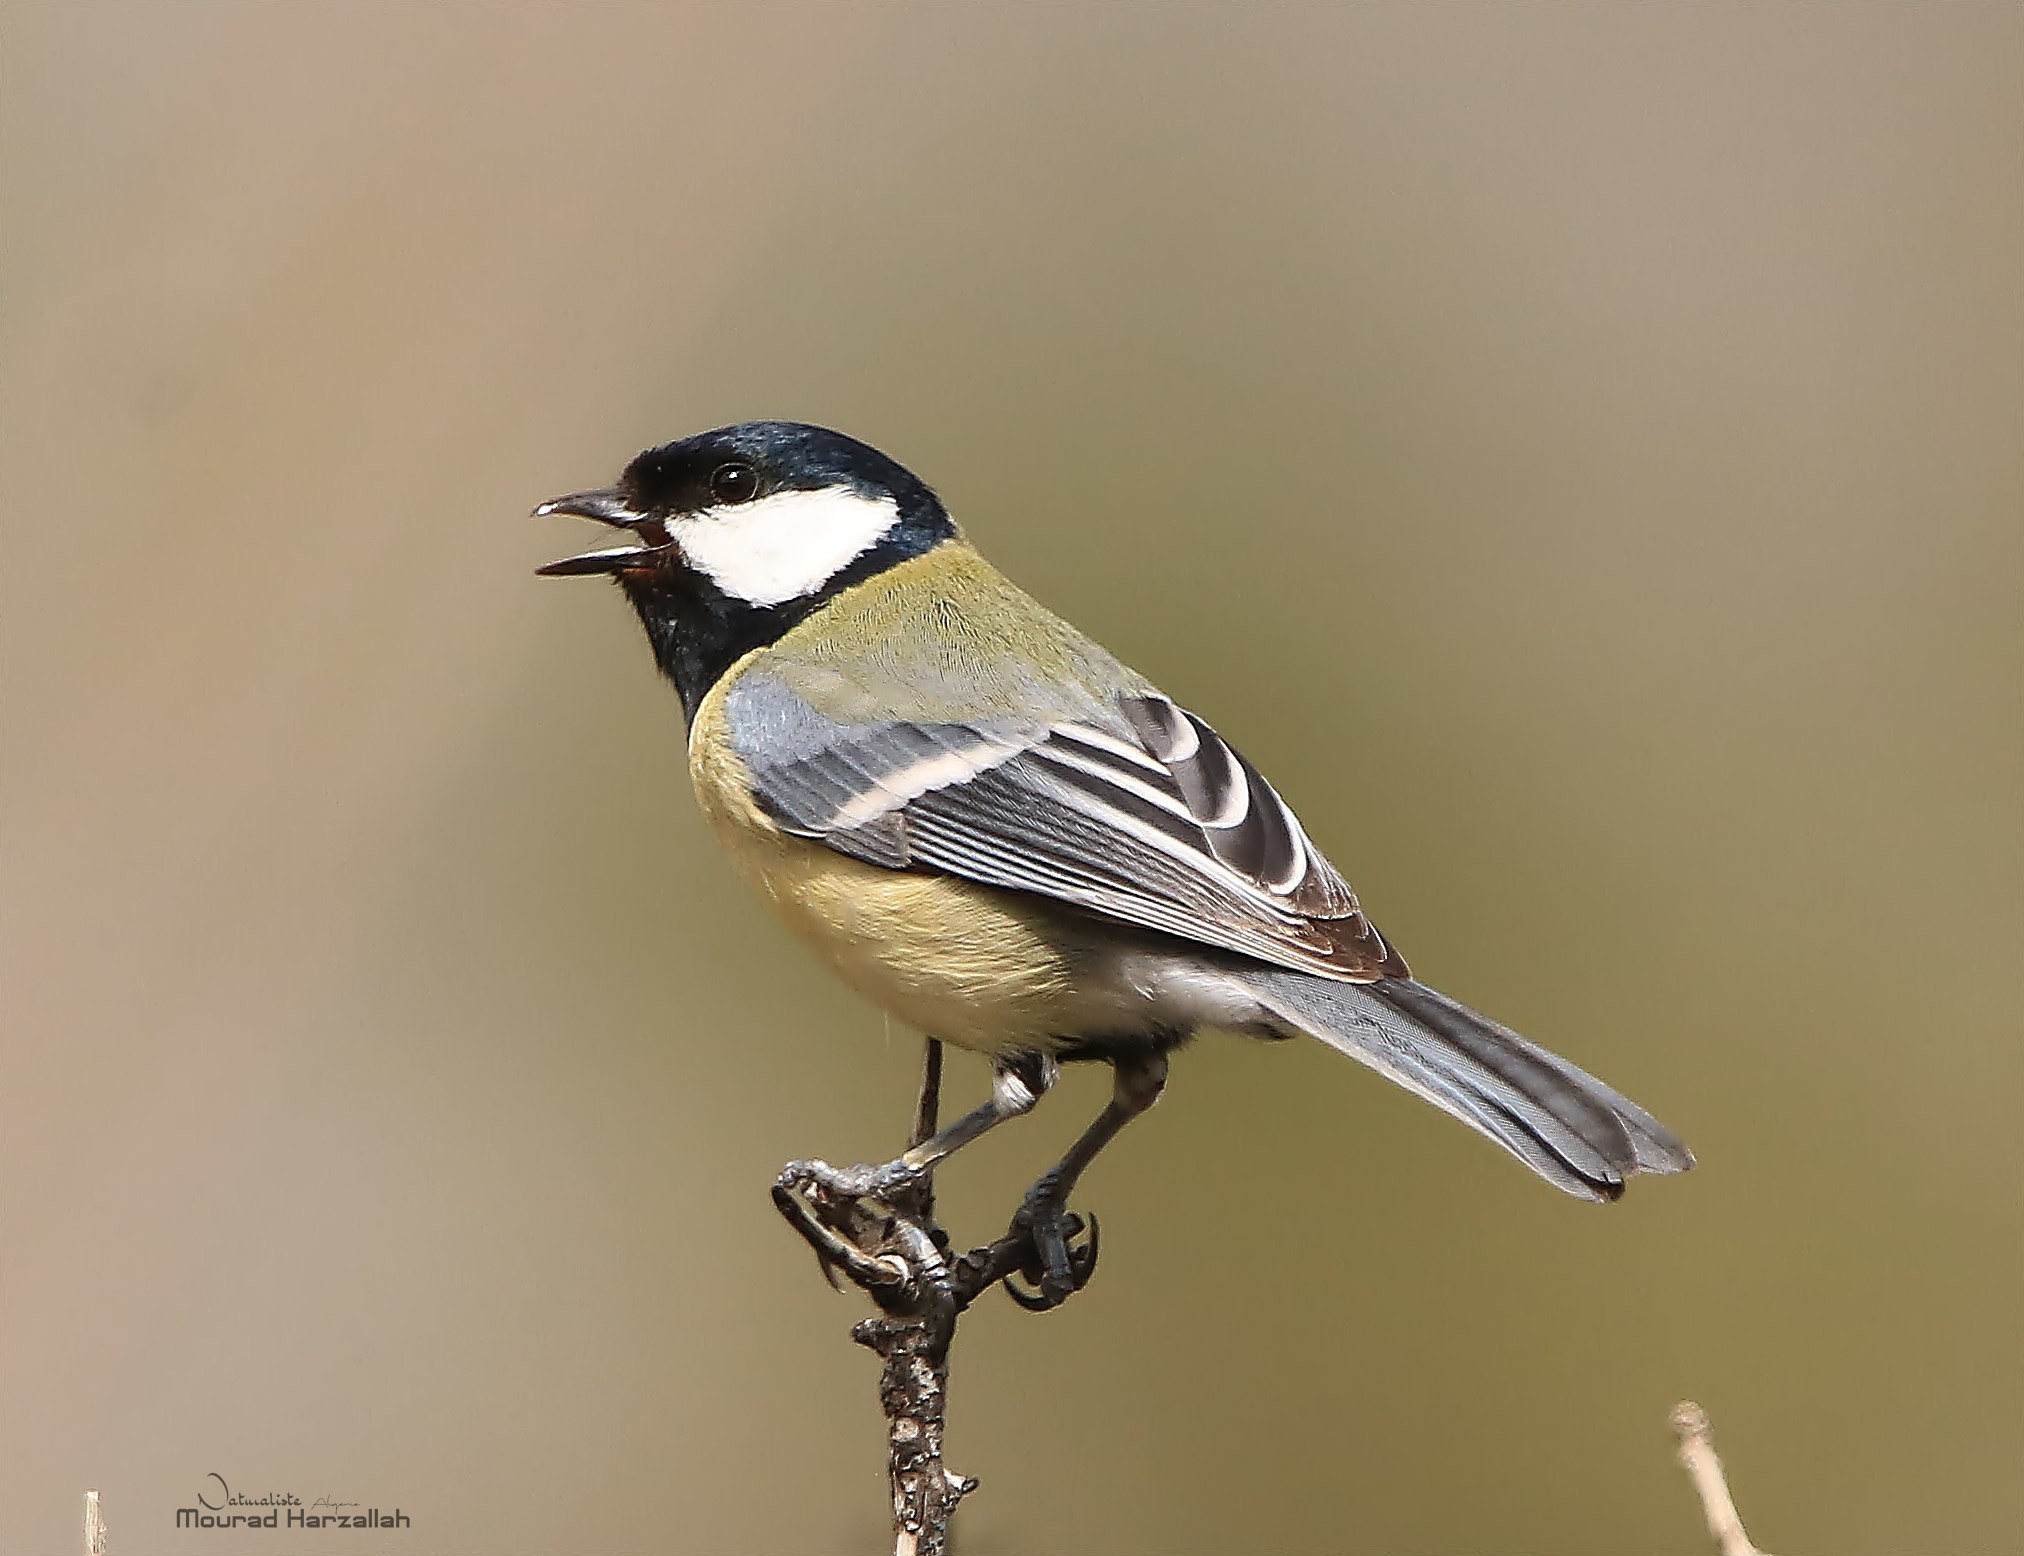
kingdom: Animalia
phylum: Chordata
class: Aves
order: Passeriformes
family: Paridae
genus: Parus
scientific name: Parus major
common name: Great tit
